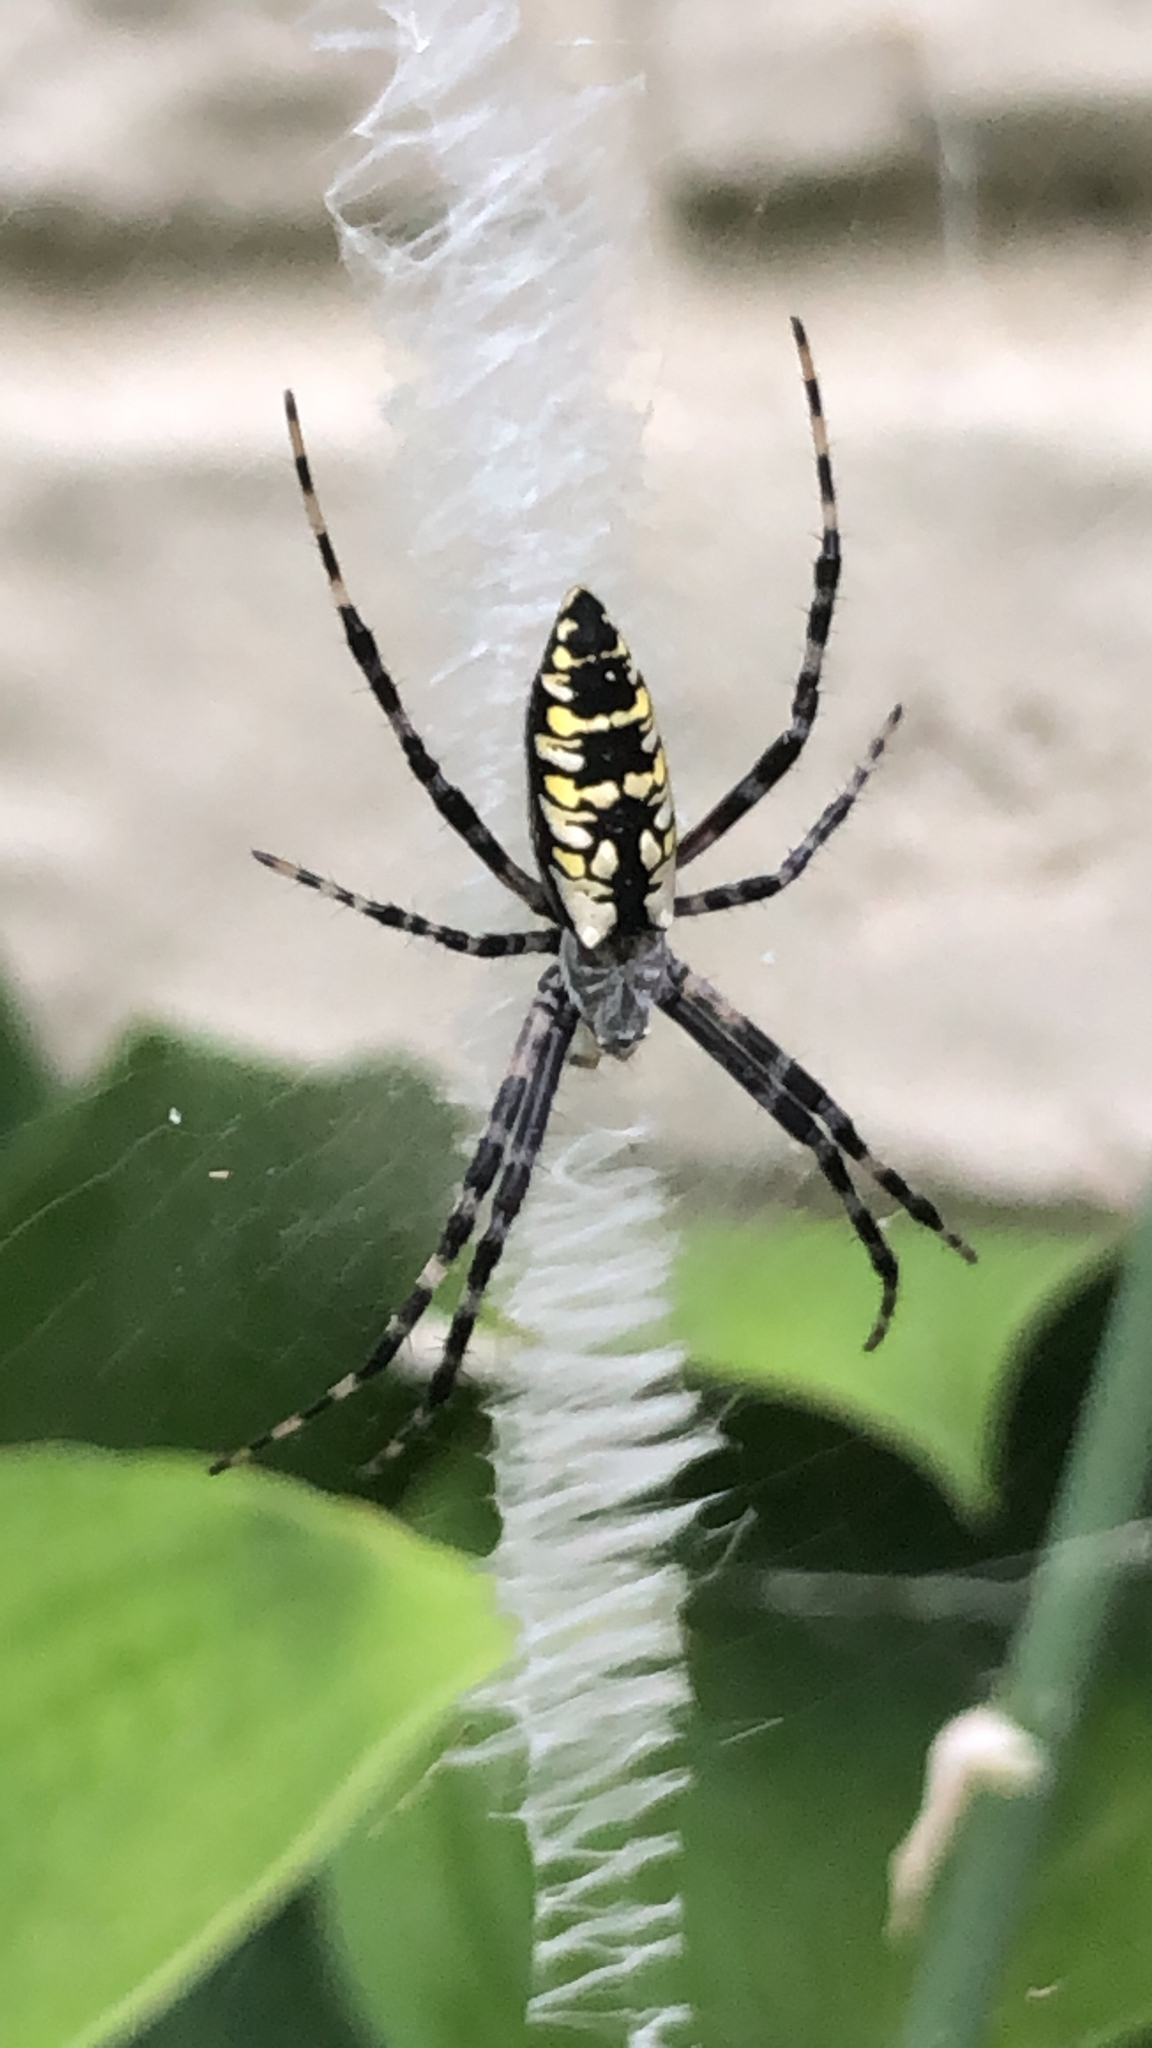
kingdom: Animalia
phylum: Arthropoda
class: Arachnida
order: Araneae
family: Araneidae
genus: Argiope
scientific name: Argiope aurantia
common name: Orb weavers
